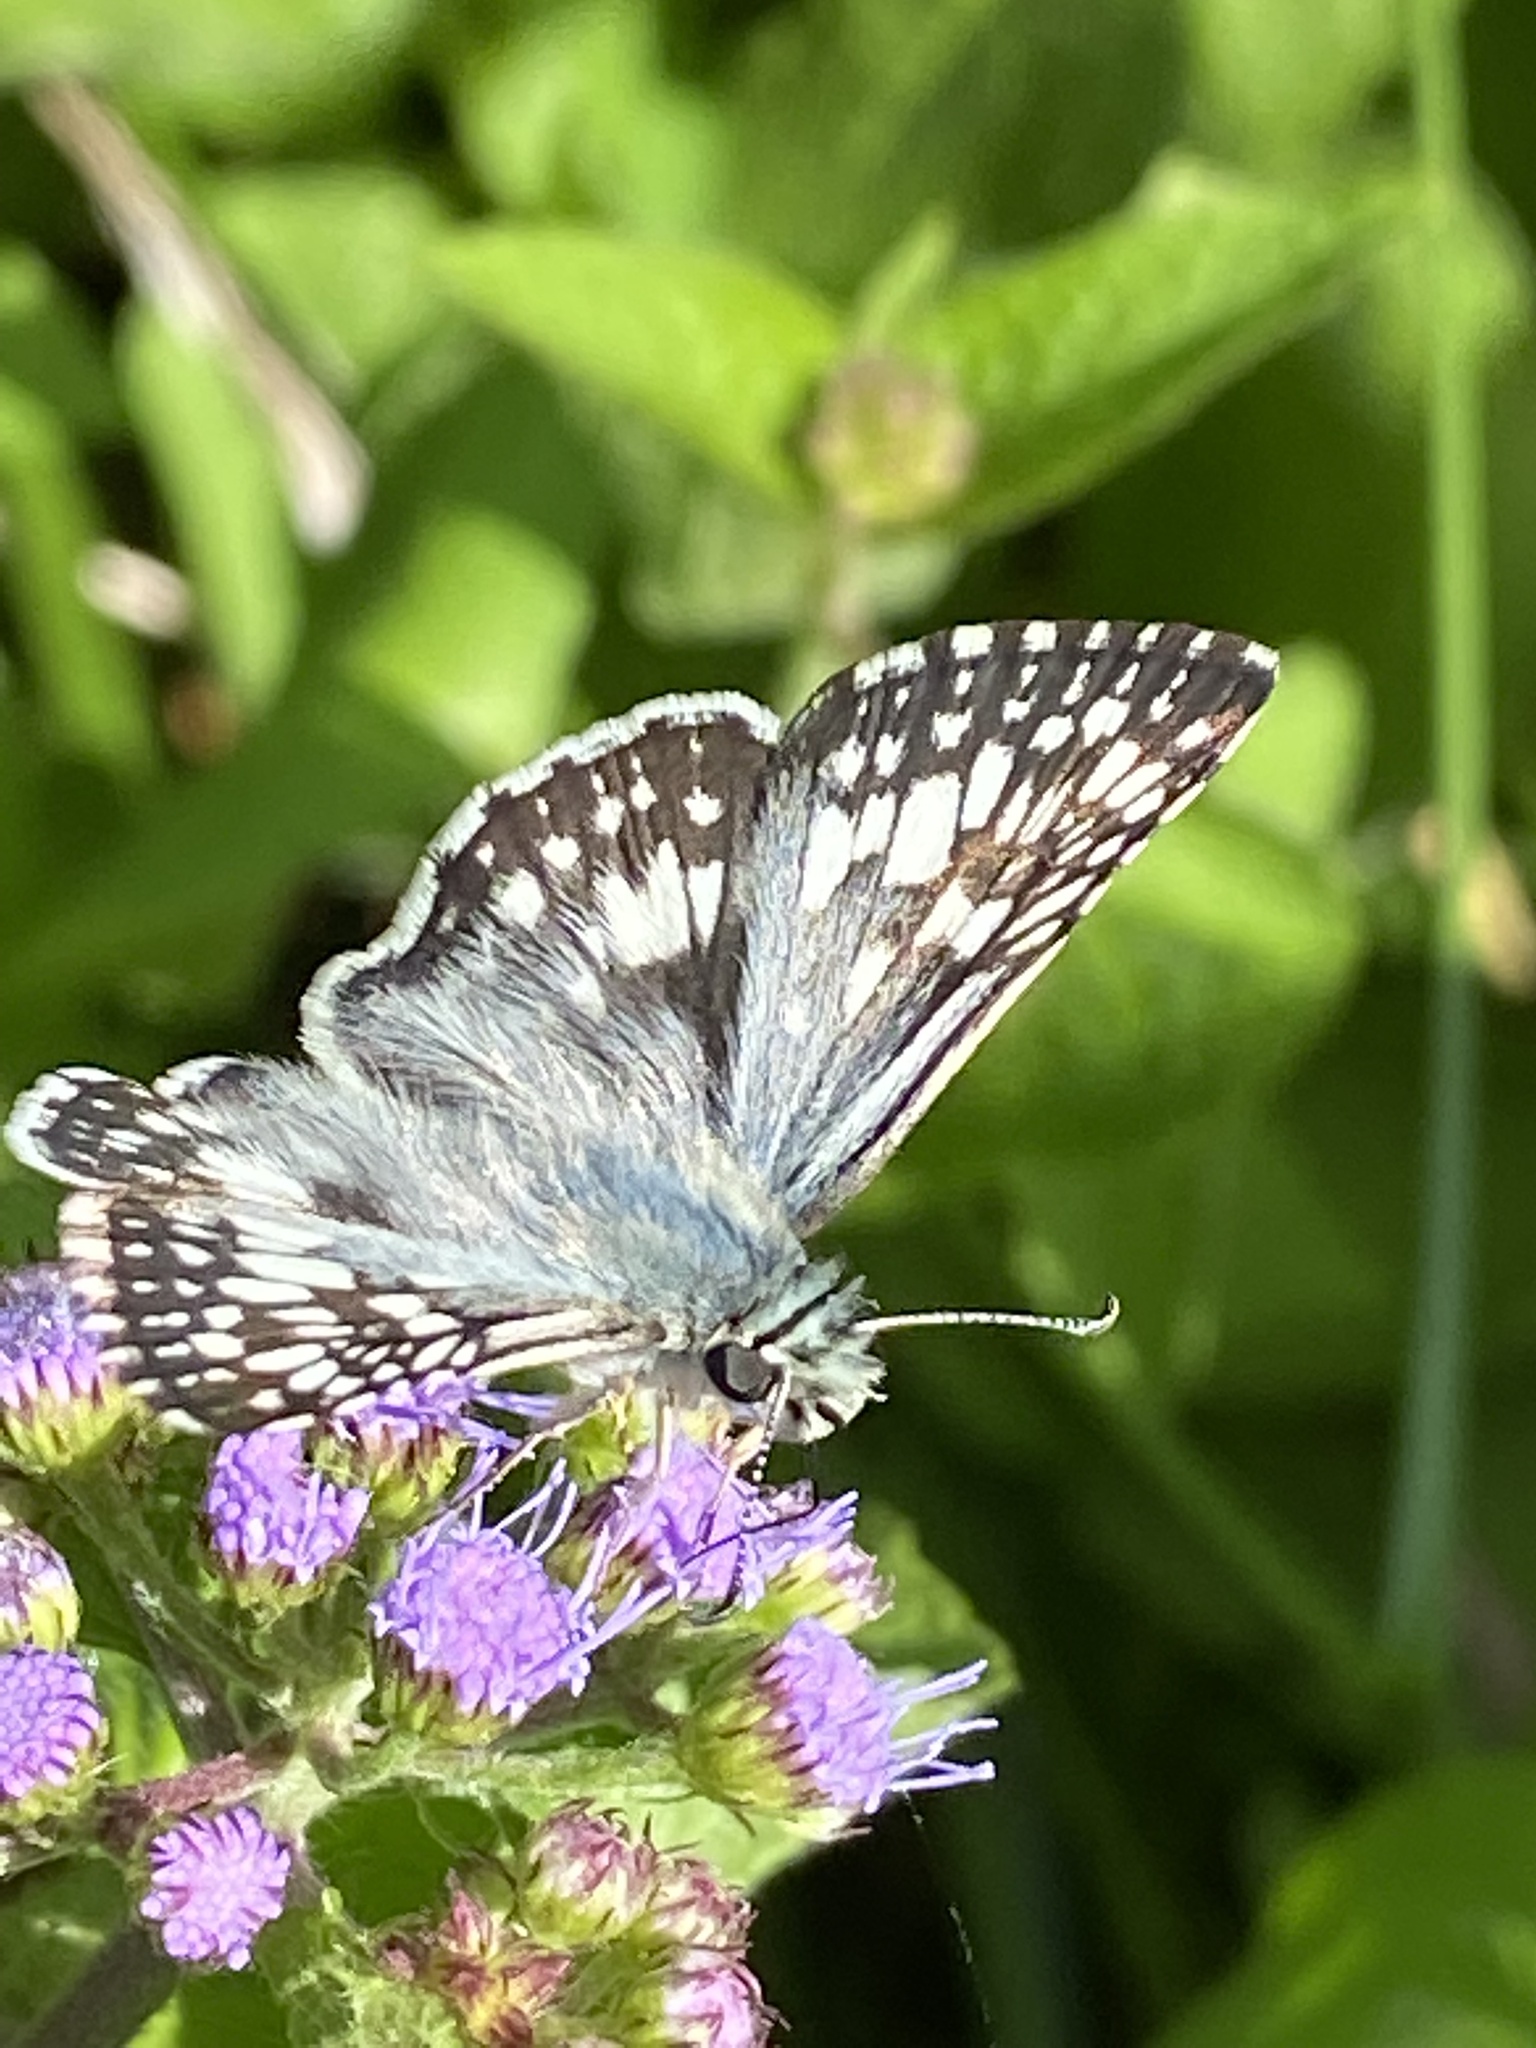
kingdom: Animalia
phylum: Arthropoda
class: Insecta
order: Lepidoptera
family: Hesperiidae
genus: Burnsius
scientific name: Burnsius communis
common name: Common checkered-skipper
